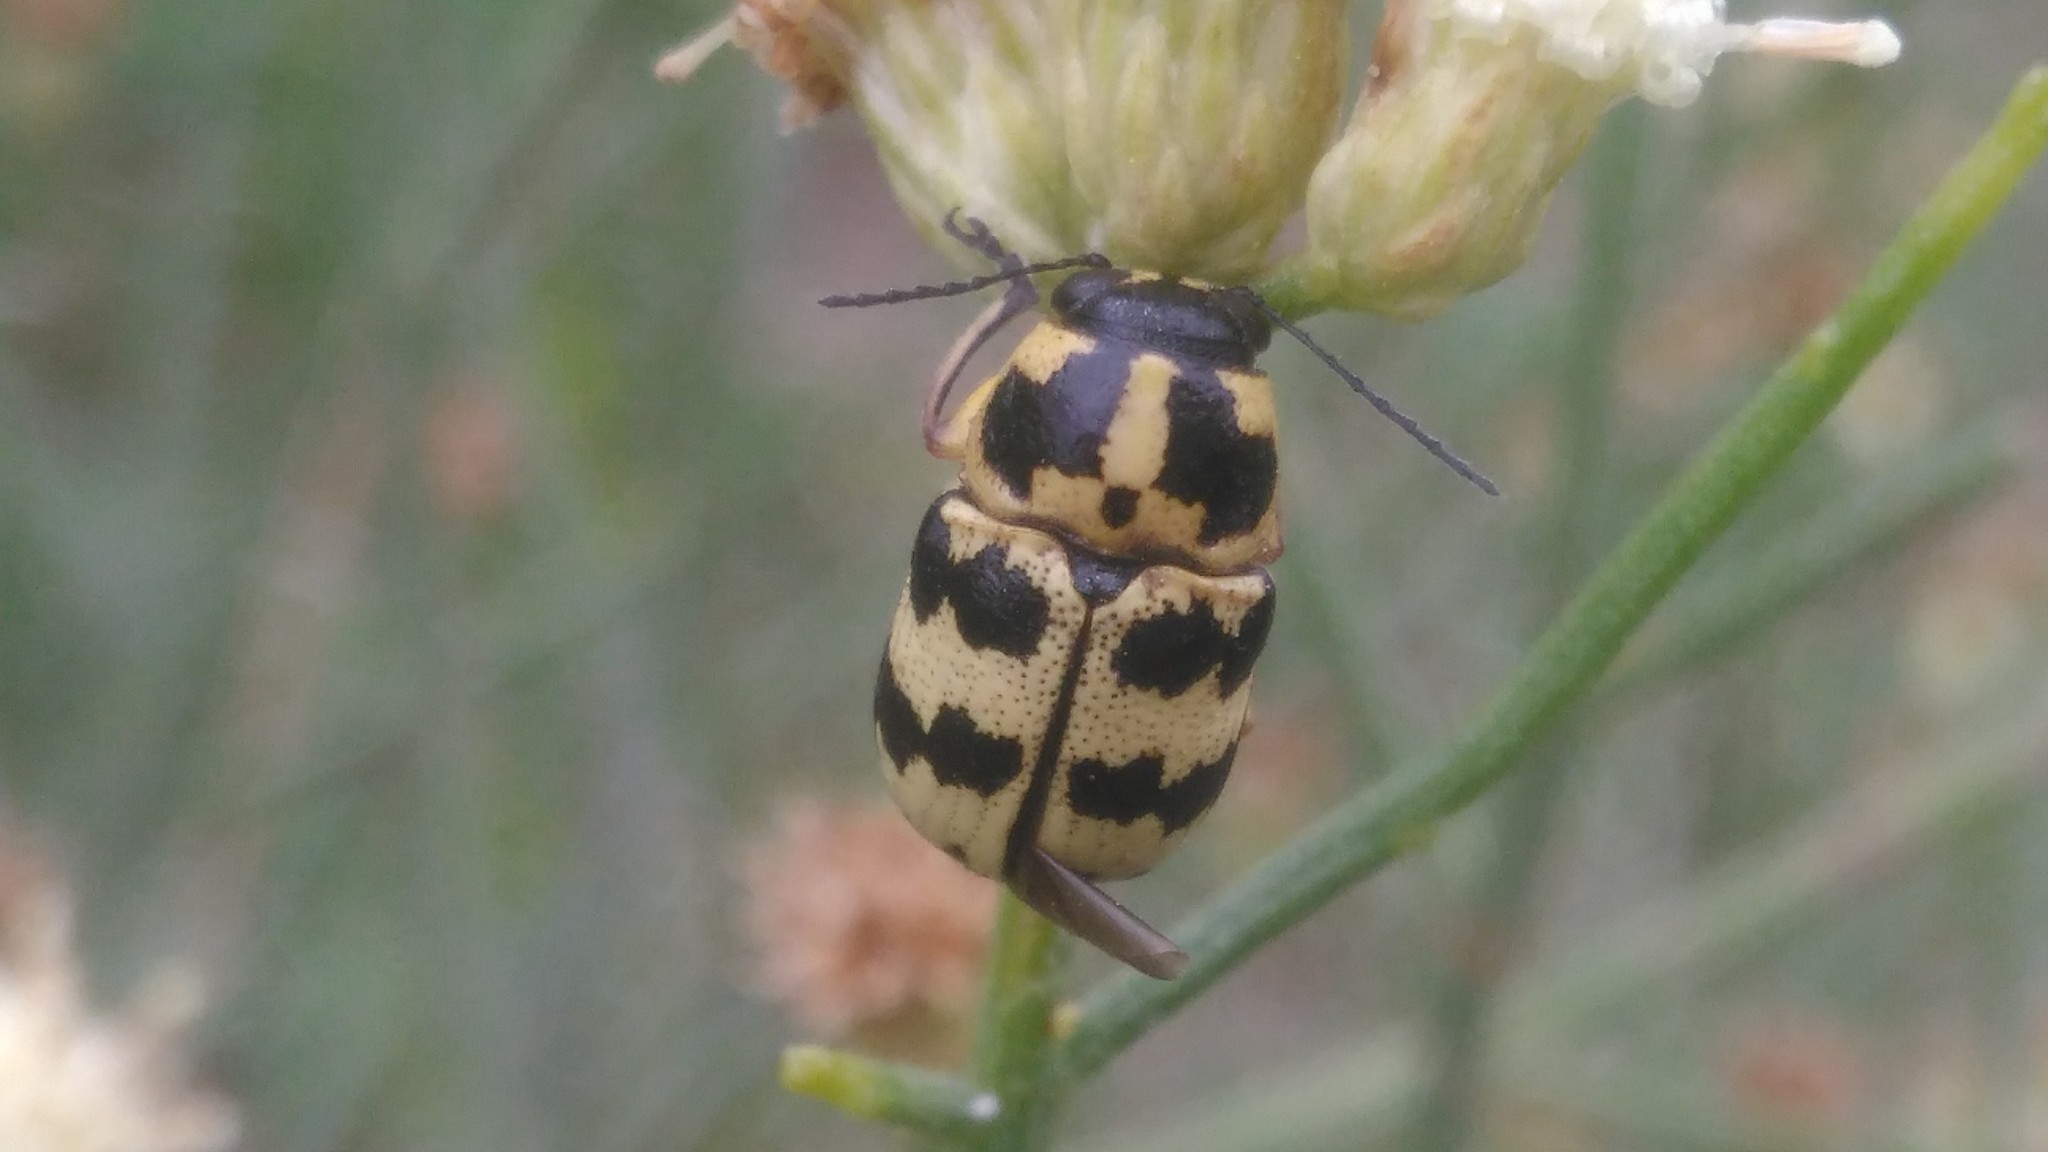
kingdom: Animalia
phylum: Arthropoda
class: Insecta
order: Coleoptera
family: Chrysomelidae
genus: Metallactus
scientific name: Metallactus rileyi
